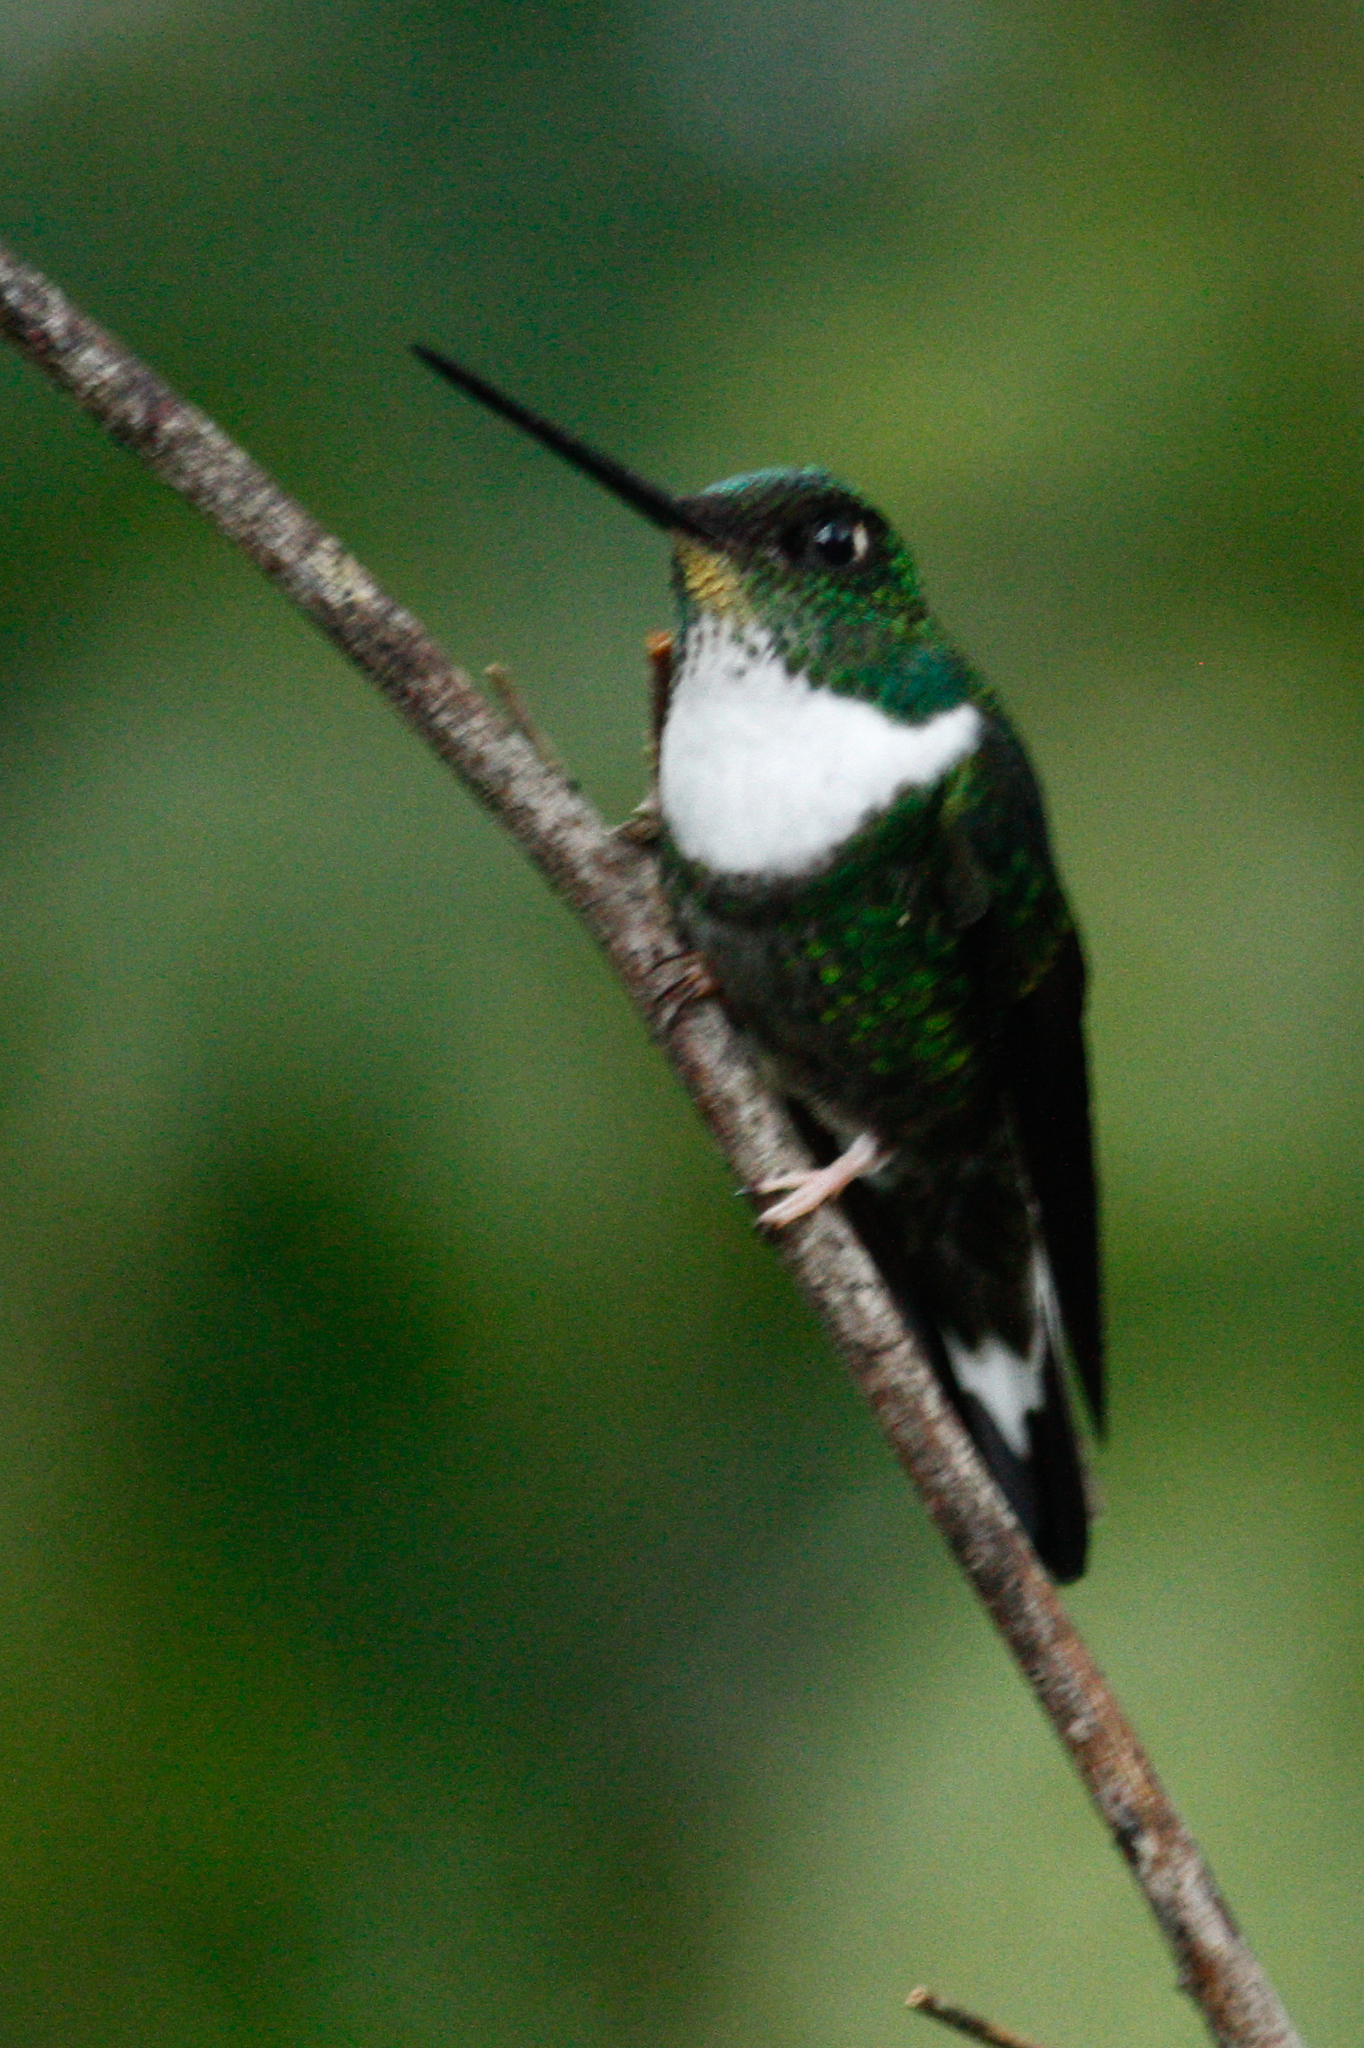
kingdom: Animalia
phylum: Chordata
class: Aves
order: Apodiformes
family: Trochilidae
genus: Coeligena
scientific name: Coeligena torquata
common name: Collared inca
